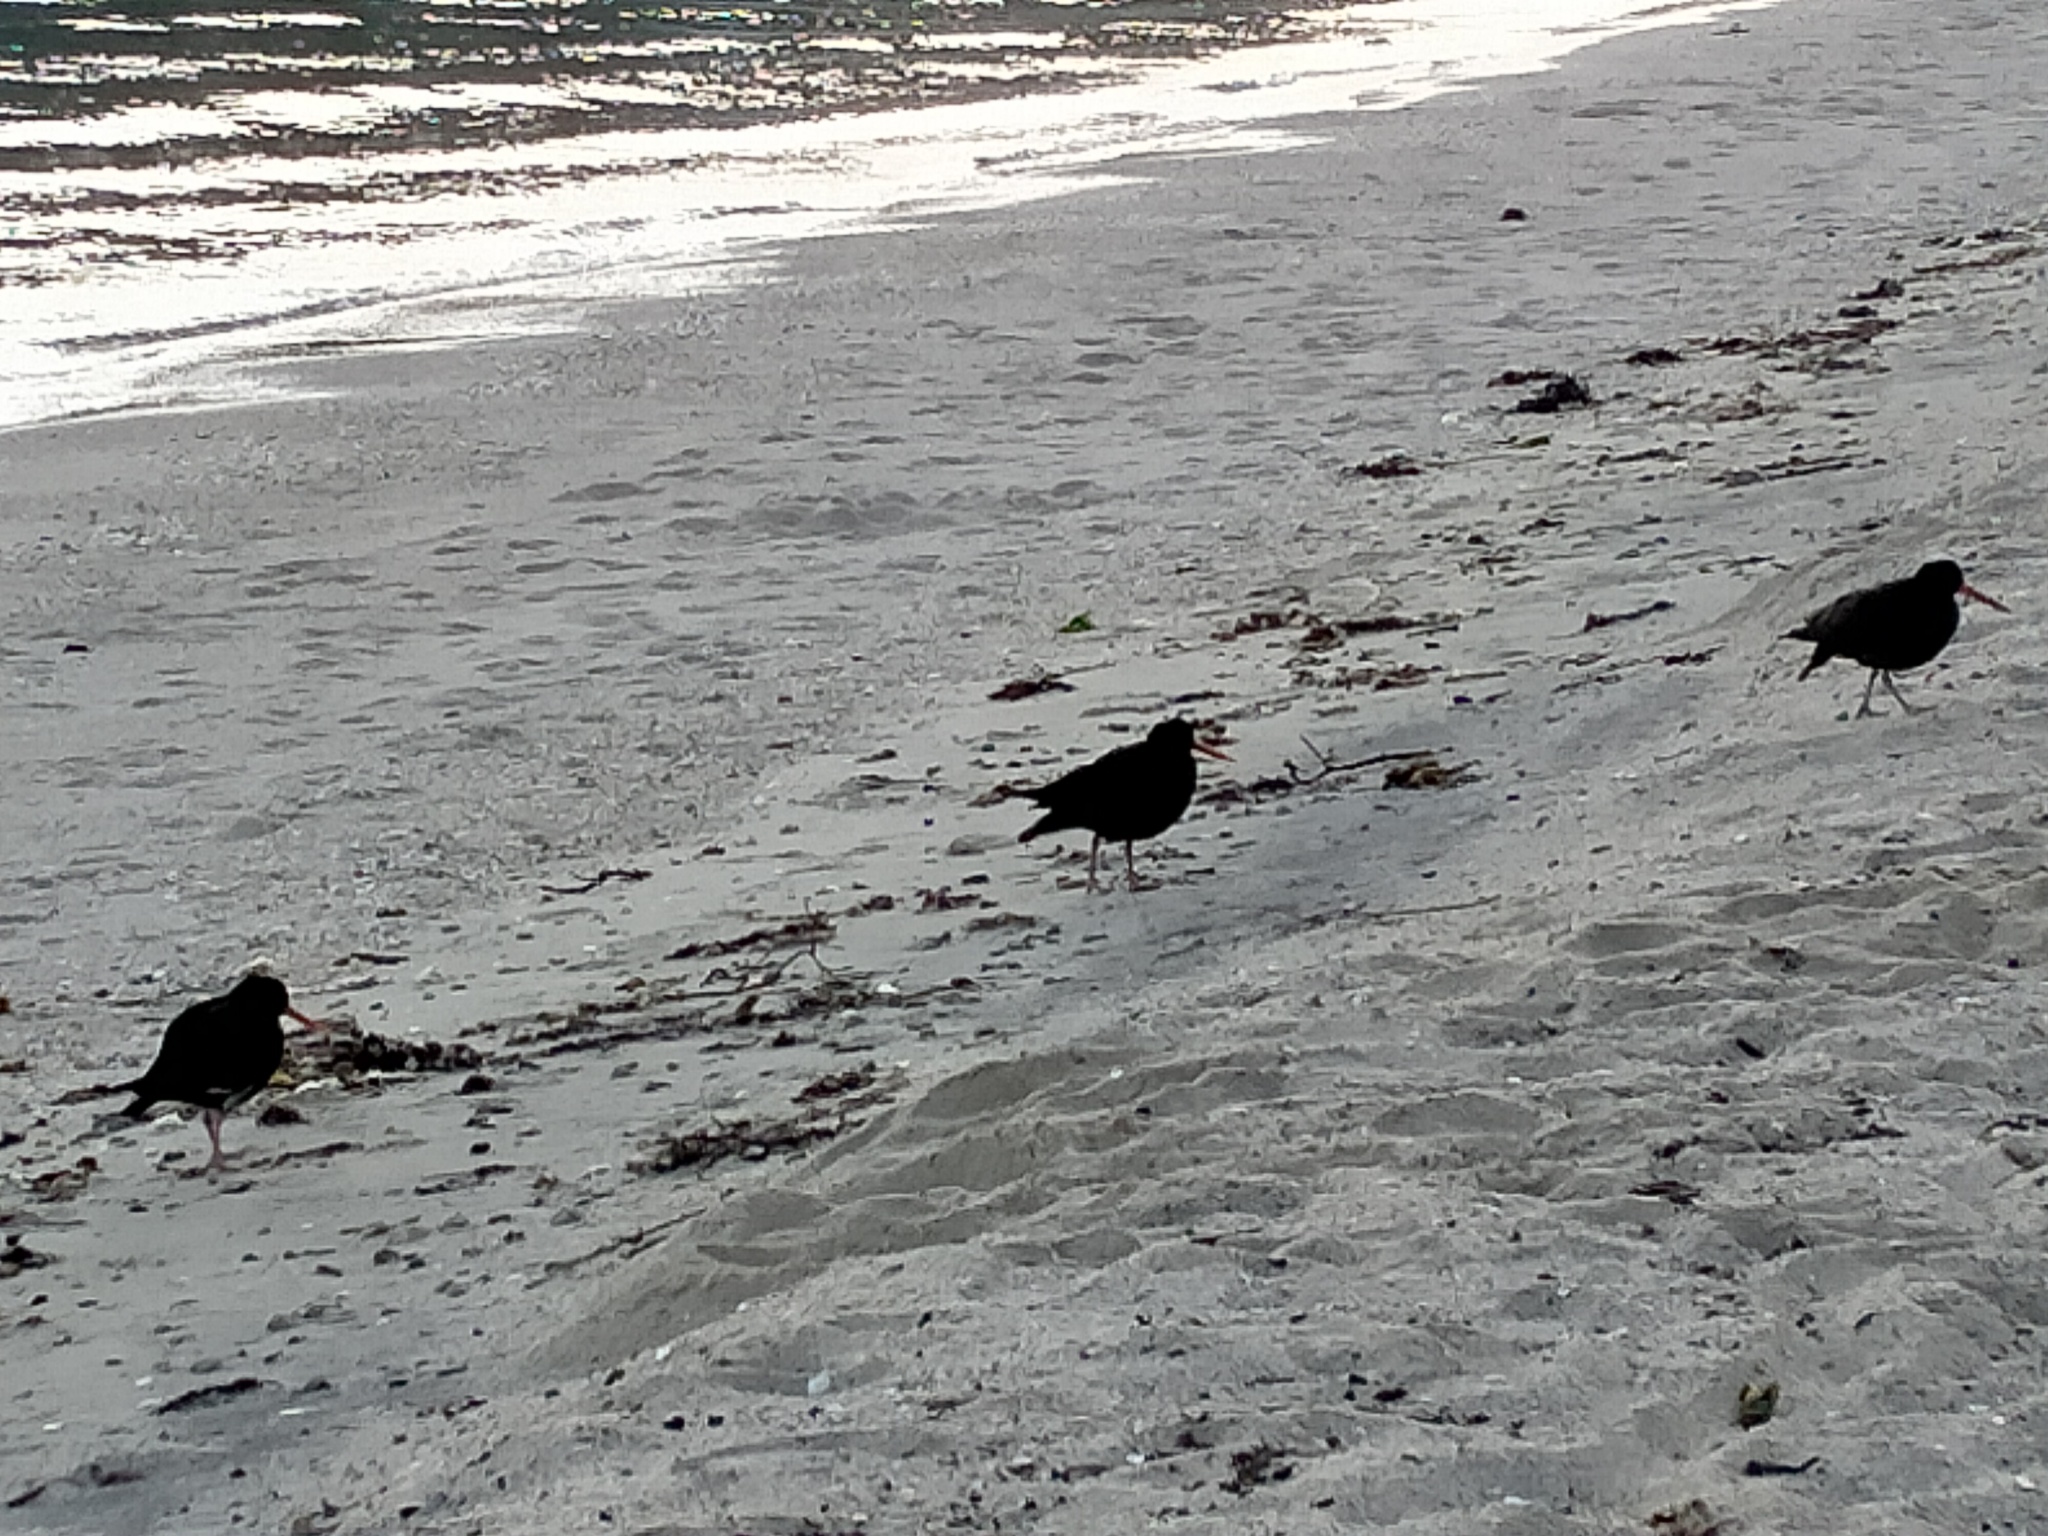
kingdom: Animalia
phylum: Chordata
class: Aves
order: Charadriiformes
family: Haematopodidae
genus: Haematopus
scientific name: Haematopus unicolor
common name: Variable oystercatcher
